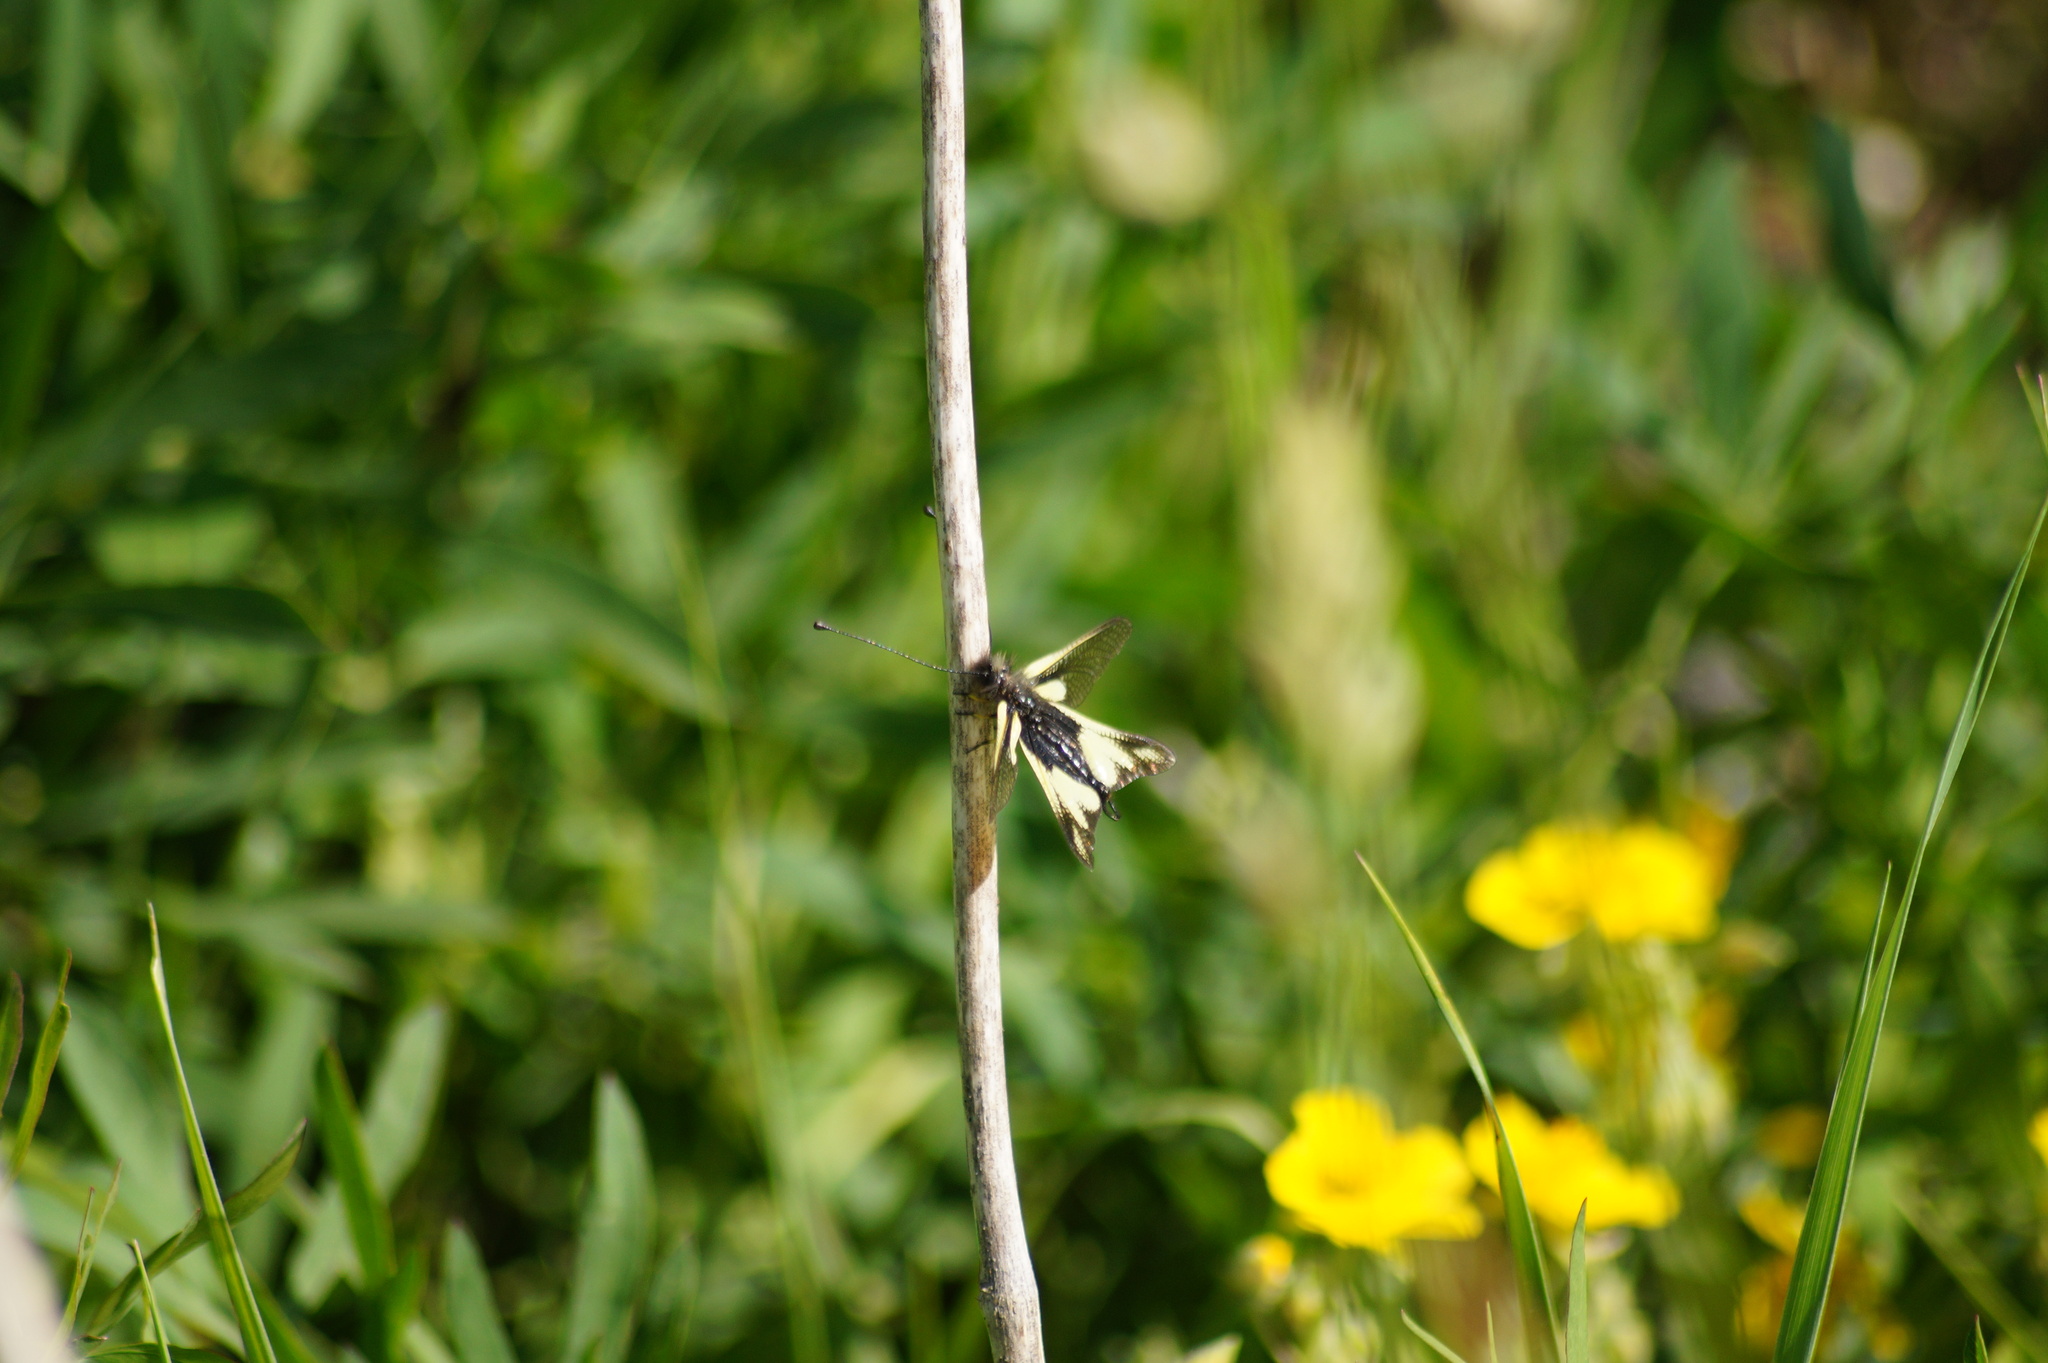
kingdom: Animalia
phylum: Arthropoda
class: Insecta
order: Neuroptera
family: Ascalaphidae
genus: Libelloides
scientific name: Libelloides coccajus
